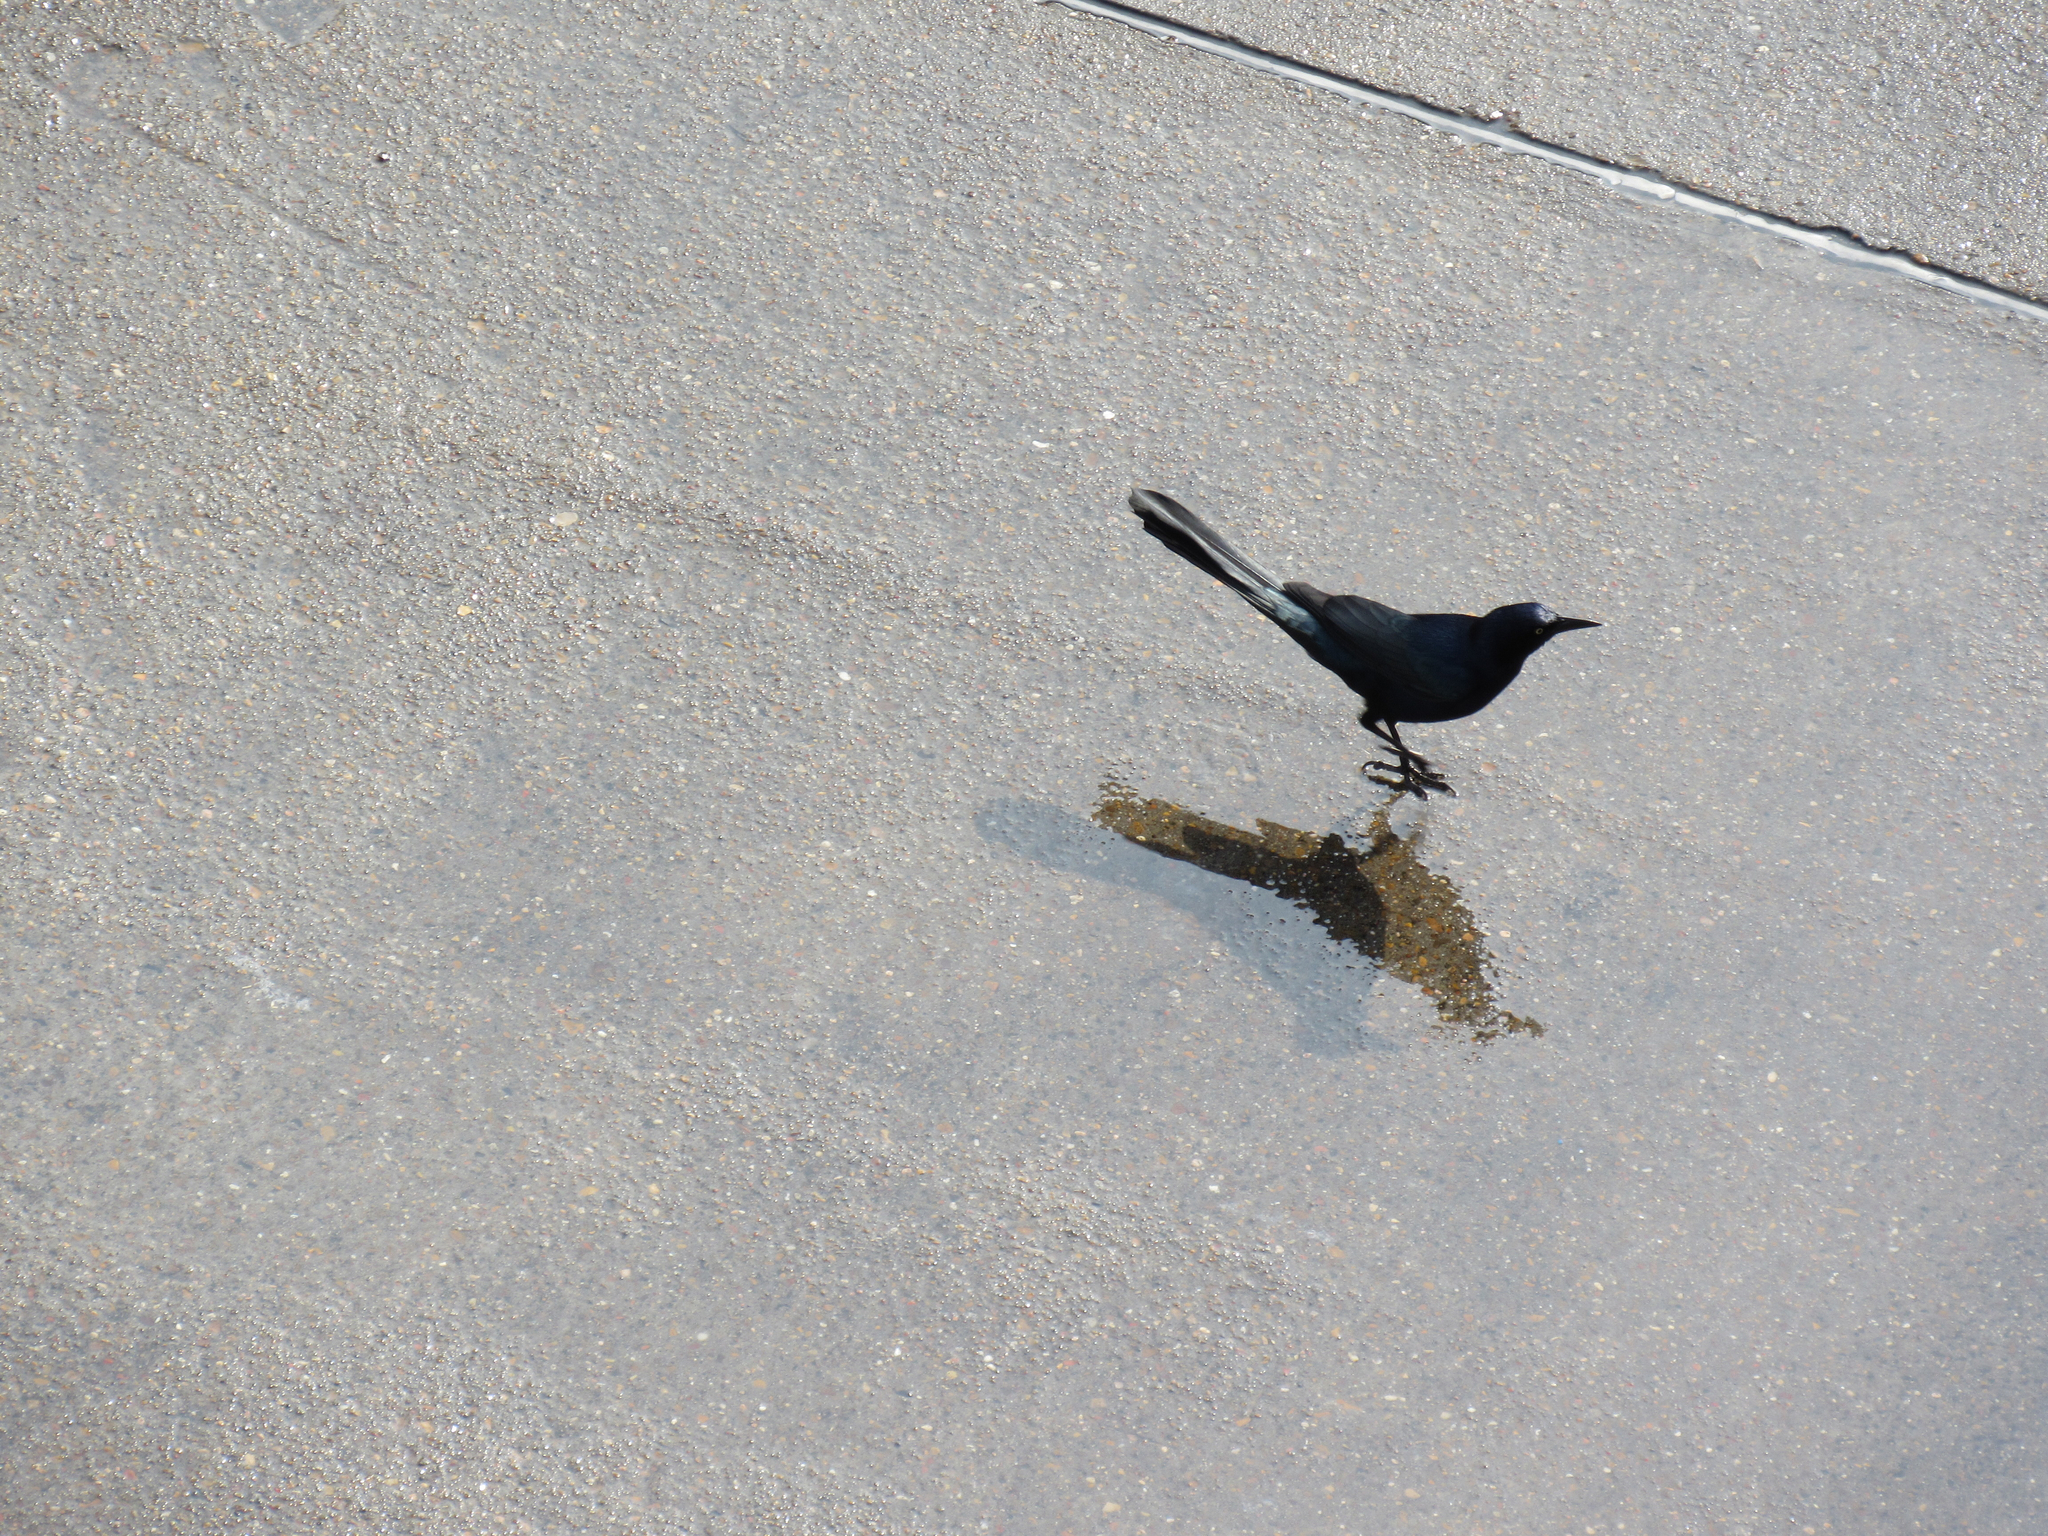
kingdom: Animalia
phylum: Chordata
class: Aves
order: Passeriformes
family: Icteridae
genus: Quiscalus
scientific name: Quiscalus mexicanus
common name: Great-tailed grackle
